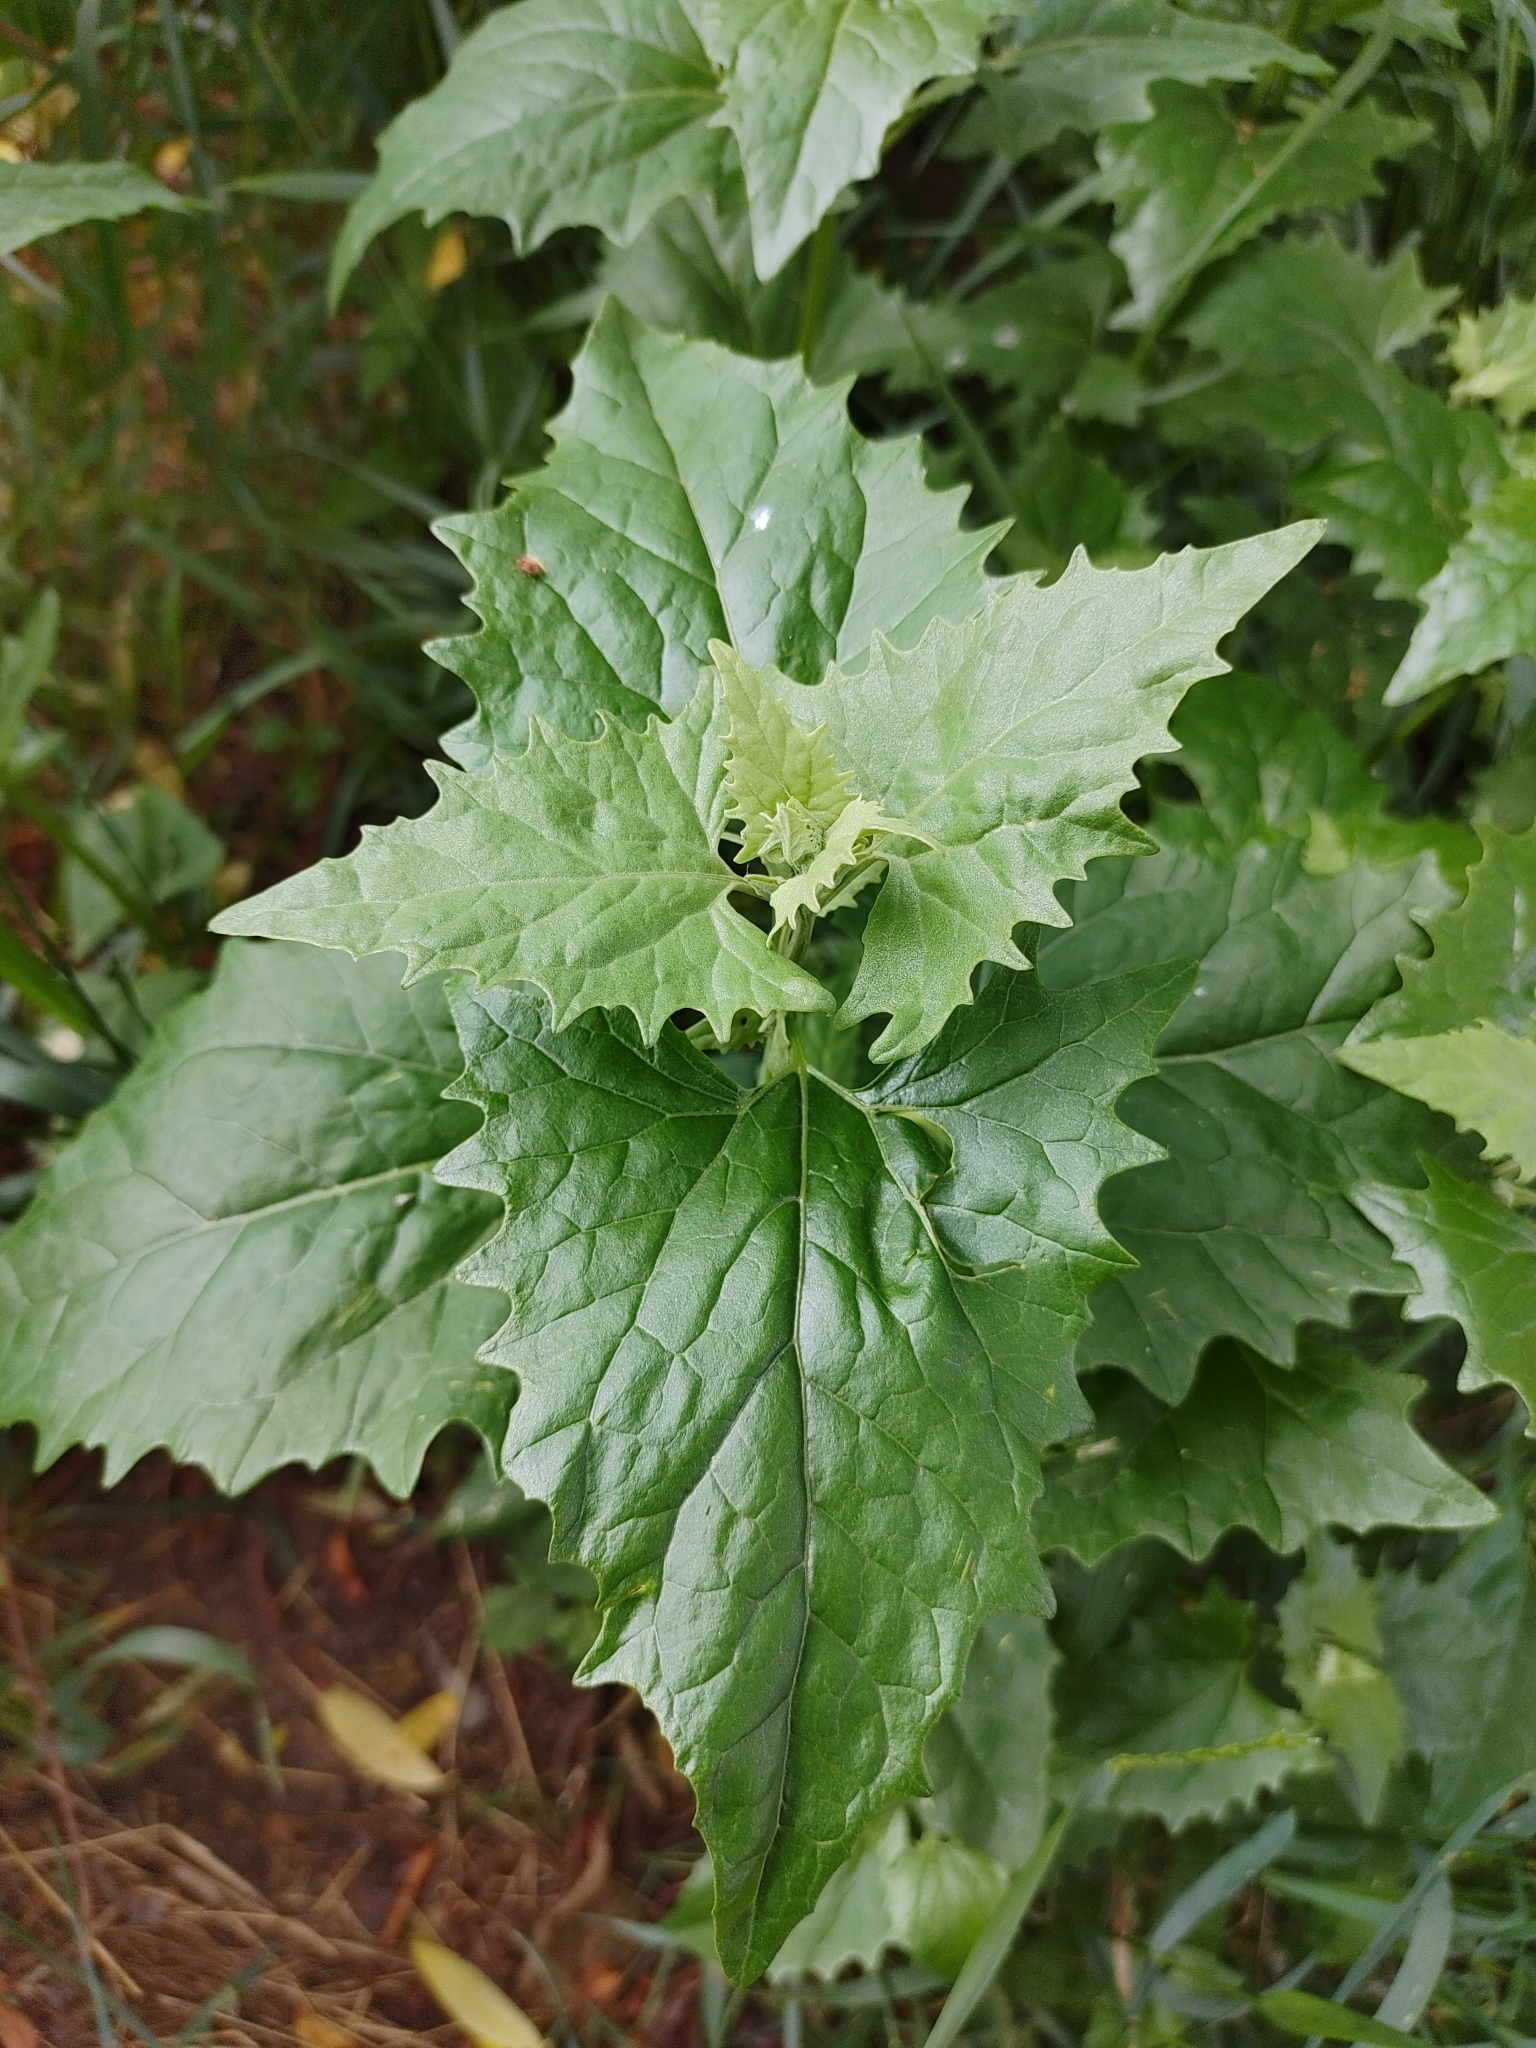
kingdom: Plantae
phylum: Tracheophyta
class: Magnoliopsida
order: Caryophyllales
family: Amaranthaceae
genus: Atriplex
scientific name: Atriplex sagittata
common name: Purple orache
